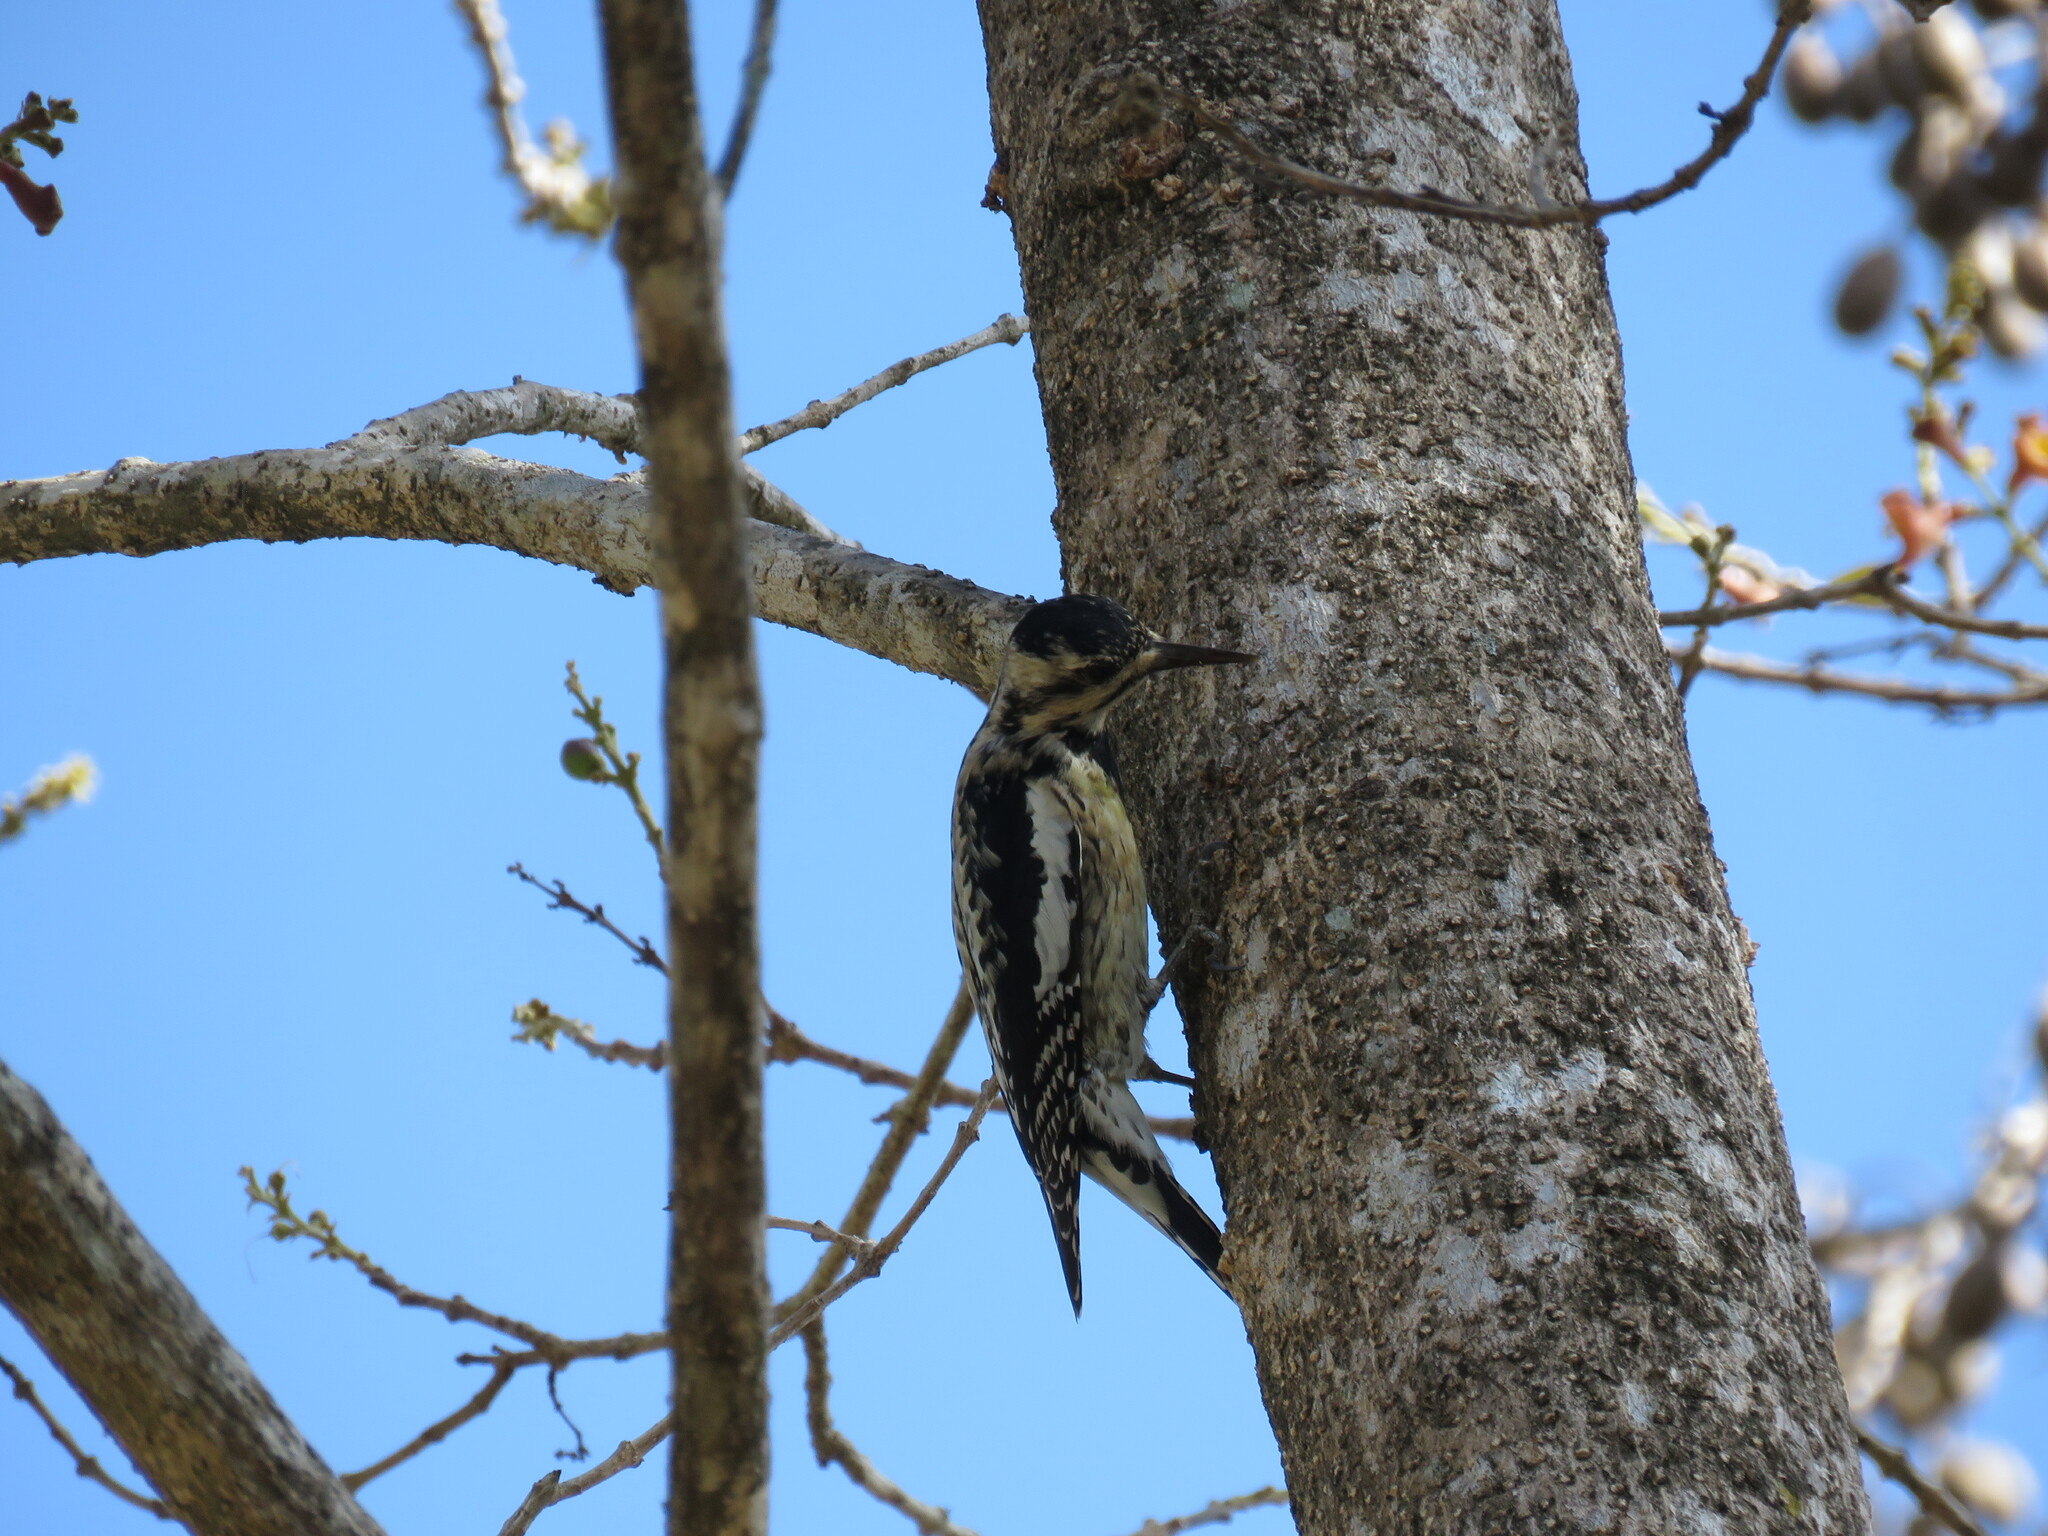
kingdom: Animalia
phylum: Chordata
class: Aves
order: Piciformes
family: Picidae
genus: Sphyrapicus
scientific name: Sphyrapicus varius
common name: Yellow-bellied sapsucker
